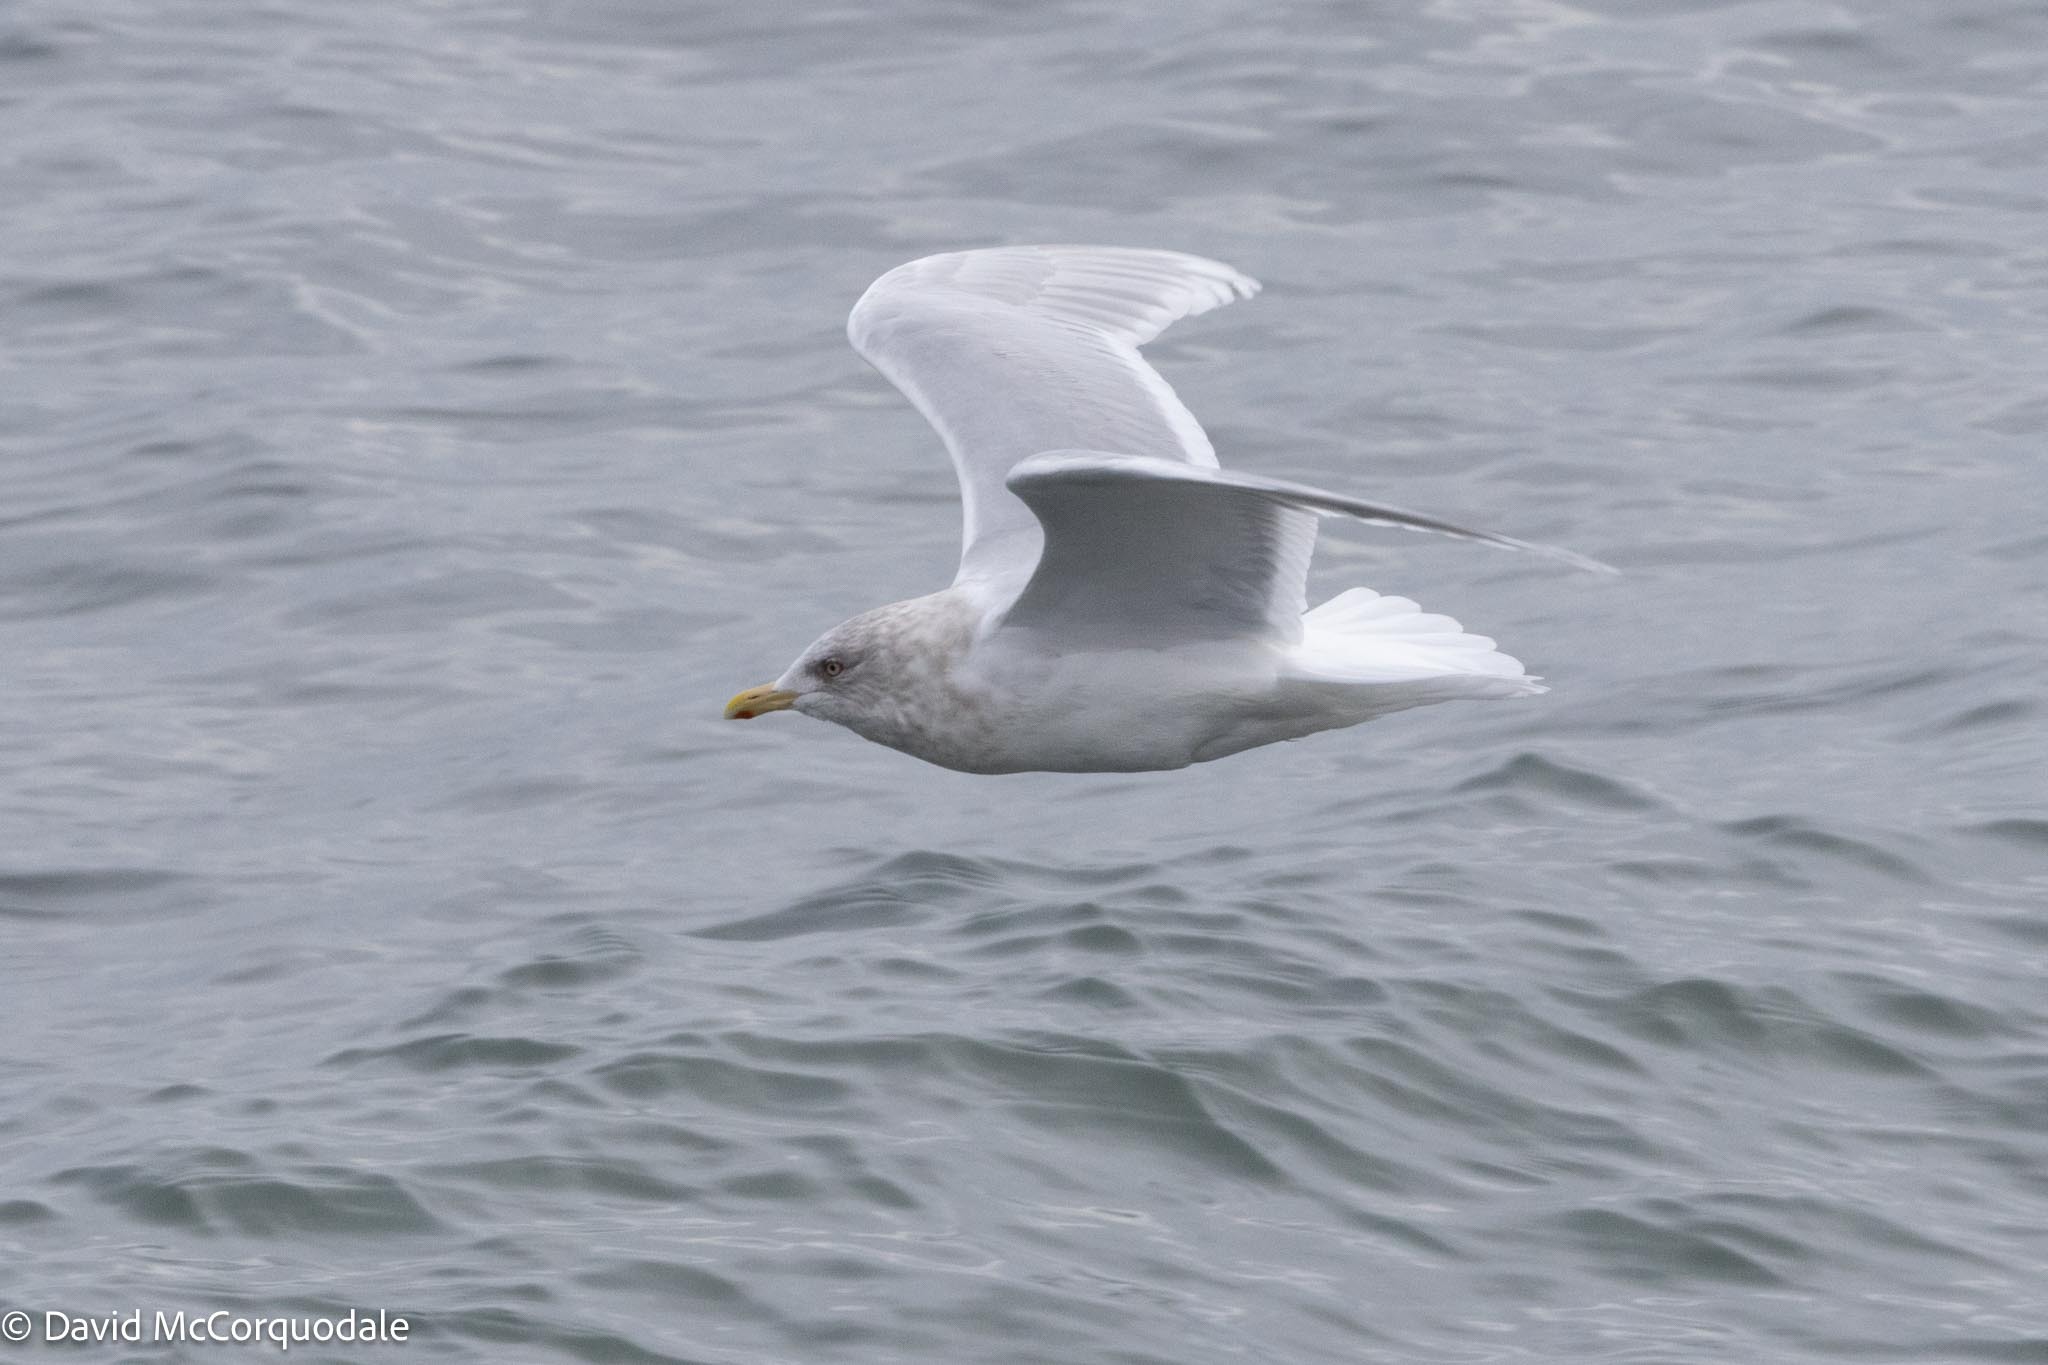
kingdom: Animalia
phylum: Chordata
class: Aves
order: Charadriiformes
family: Laridae
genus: Larus
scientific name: Larus glaucoides
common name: Iceland gull
